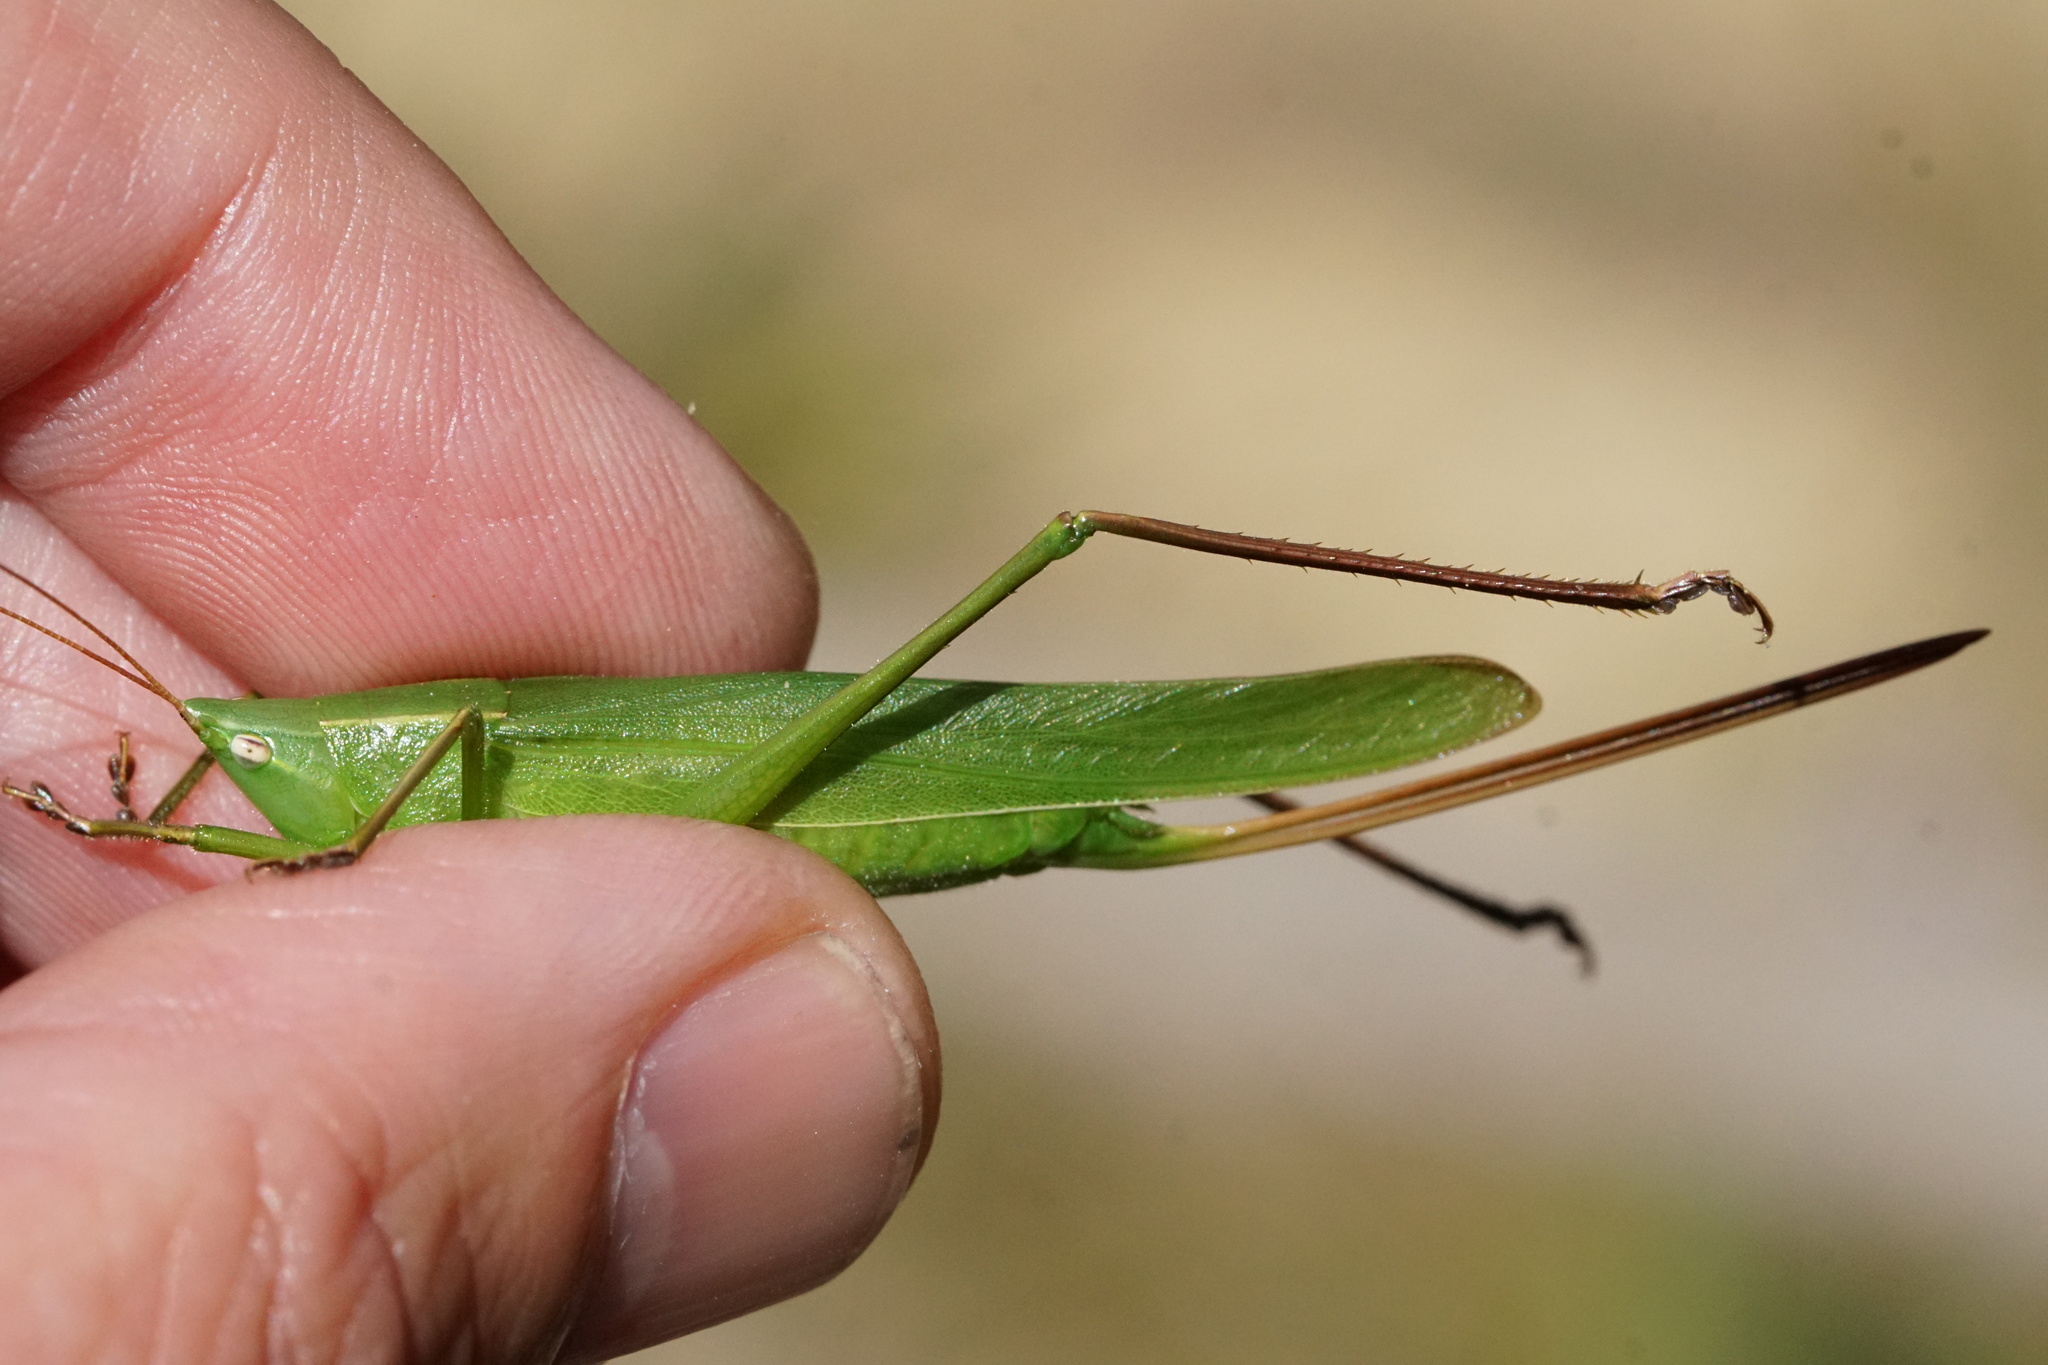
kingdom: Animalia
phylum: Arthropoda
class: Insecta
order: Orthoptera
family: Tettigoniidae
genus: Neoconocephalus
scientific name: Neoconocephalus retusus
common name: Round-tipped conehead
